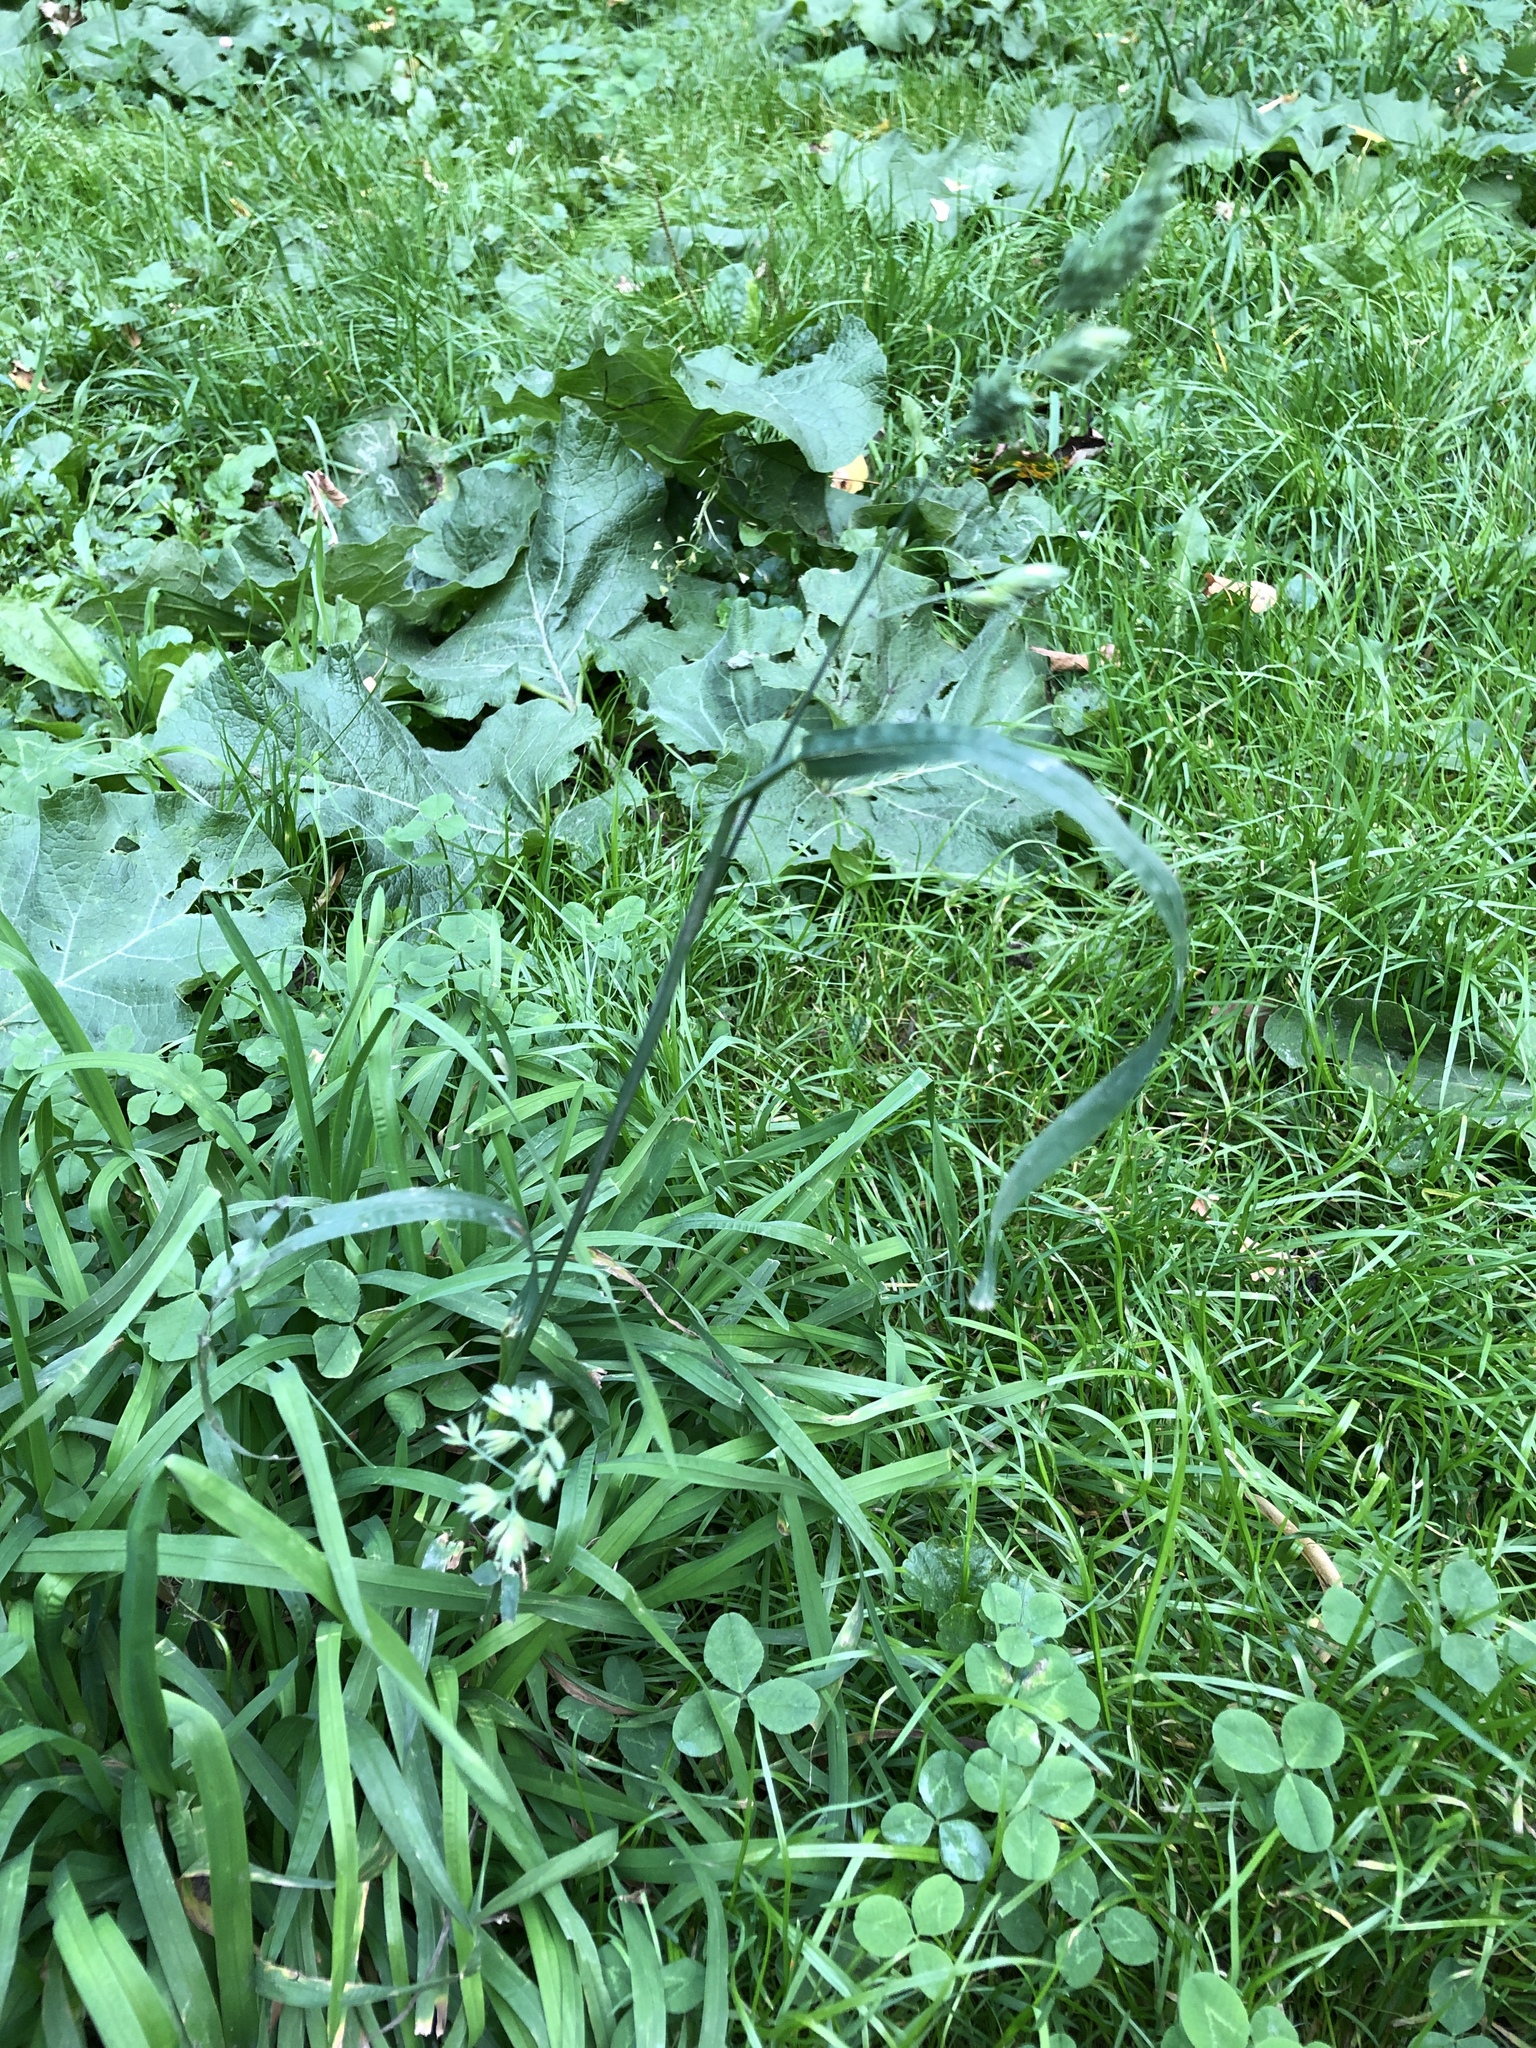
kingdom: Plantae
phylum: Tracheophyta
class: Liliopsida
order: Poales
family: Poaceae
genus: Dactylis
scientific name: Dactylis glomerata
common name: Orchardgrass
